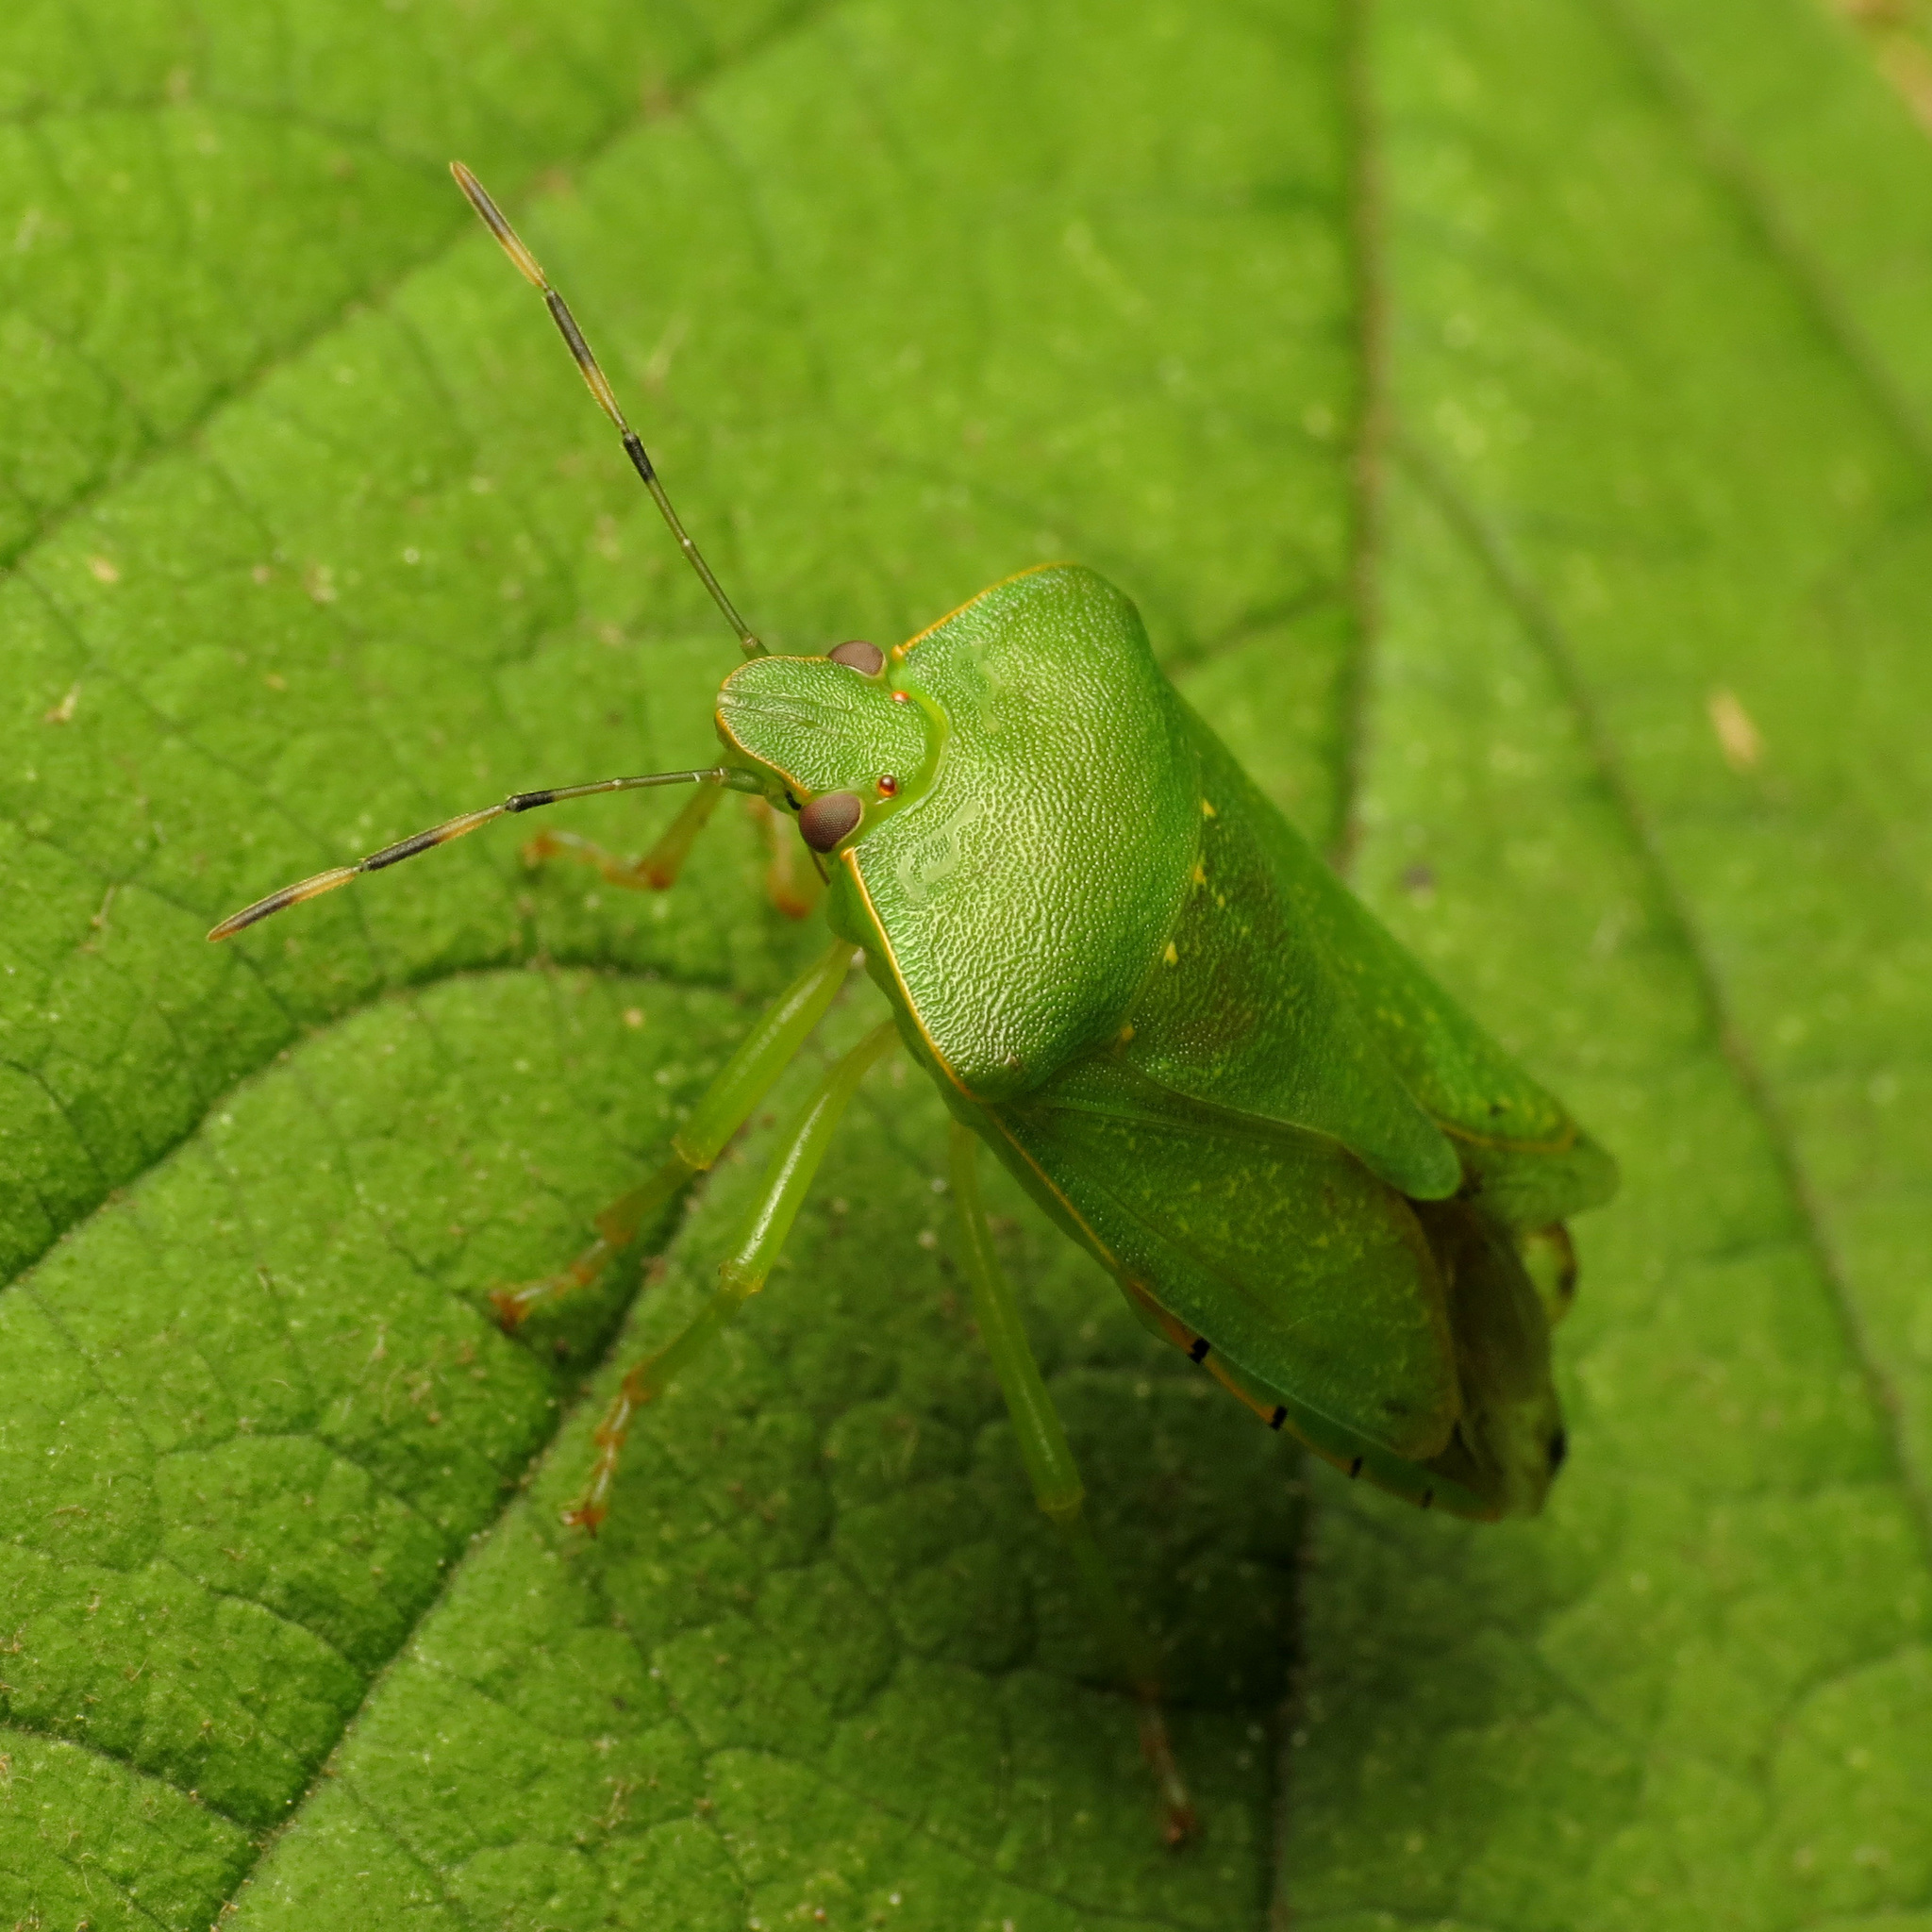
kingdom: Animalia
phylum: Arthropoda
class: Insecta
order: Hemiptera
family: Pentatomidae
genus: Chinavia
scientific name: Chinavia hilaris
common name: Green stink bug
